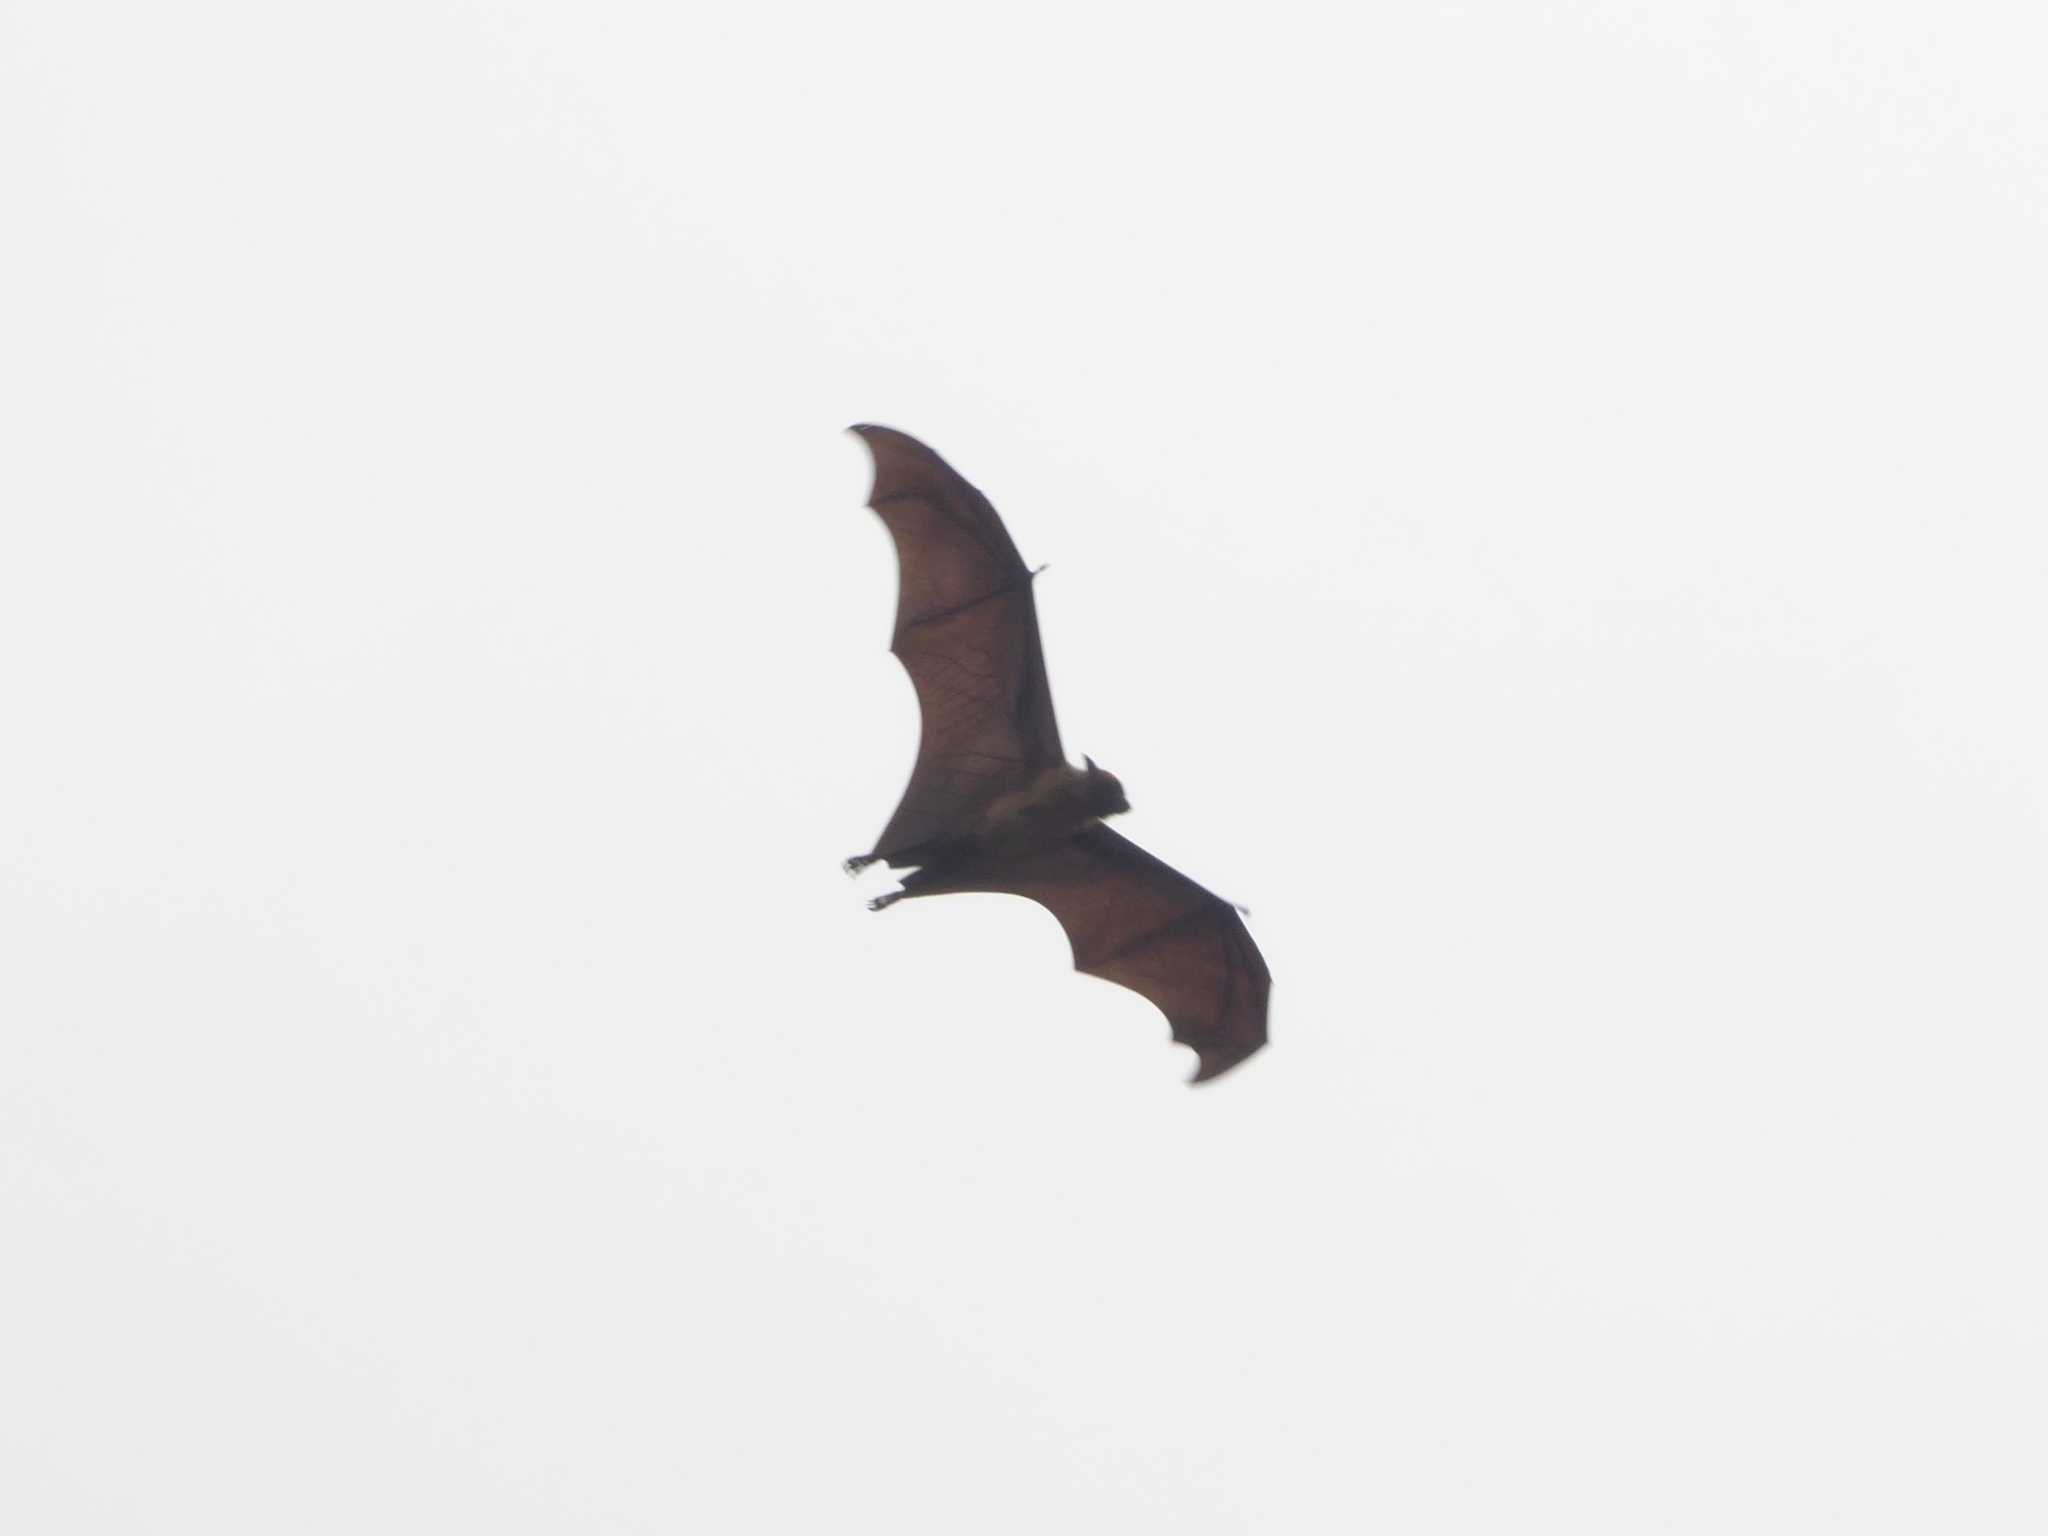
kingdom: Animalia
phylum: Chordata
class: Mammalia
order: Chiroptera
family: Pteropodidae
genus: Pteropus
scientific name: Pteropus vampyrus
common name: Large flying fox
